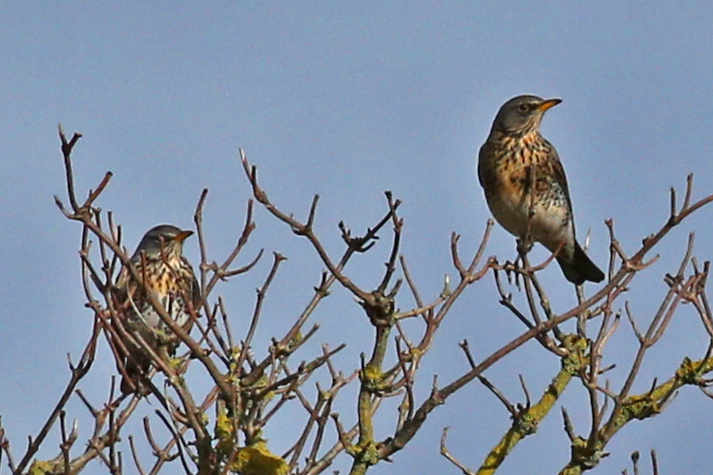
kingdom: Animalia
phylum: Chordata
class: Aves
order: Passeriformes
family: Turdidae
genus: Turdus
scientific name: Turdus pilaris
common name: Fieldfare
